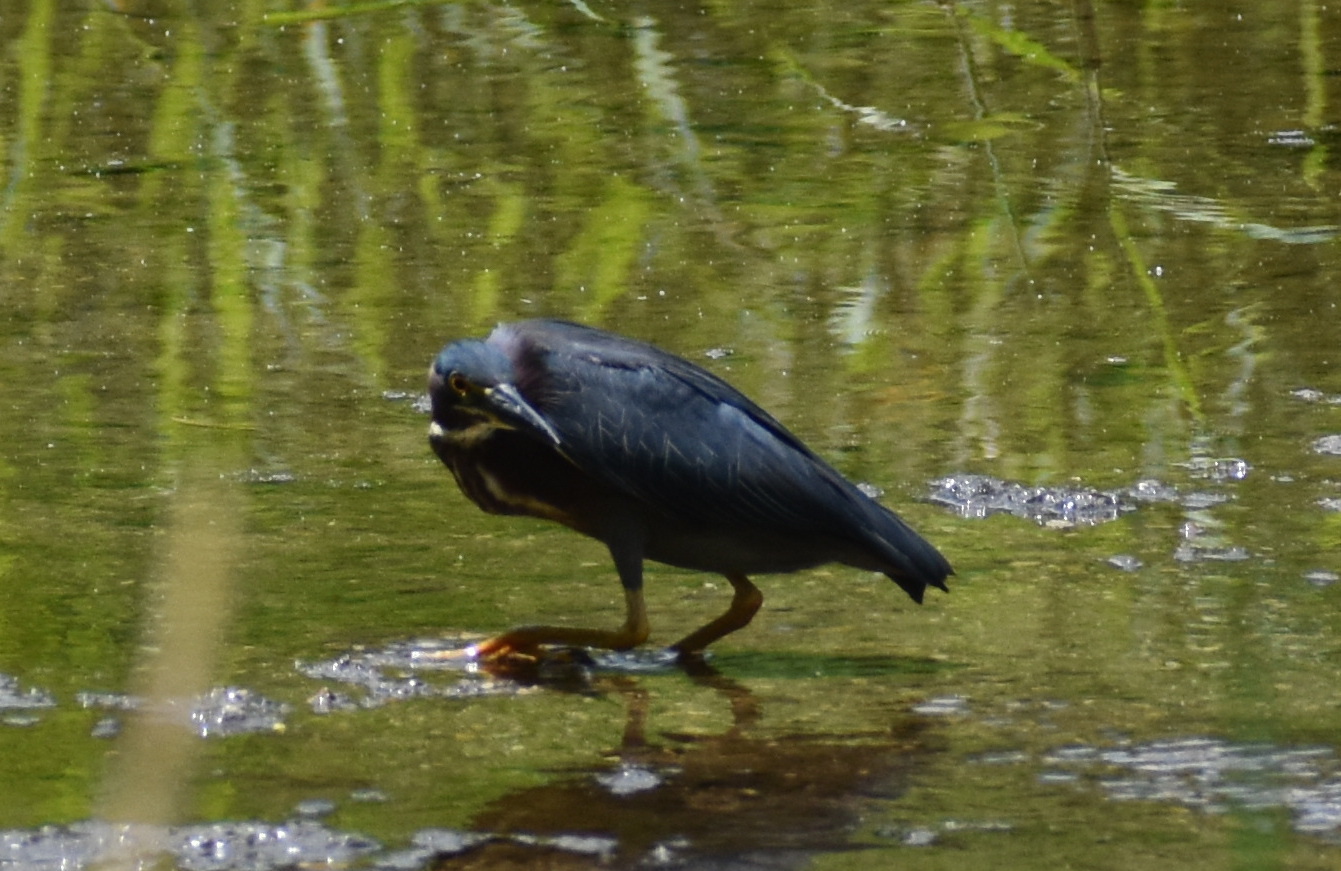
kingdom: Animalia
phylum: Chordata
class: Aves
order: Pelecaniformes
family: Ardeidae
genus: Butorides
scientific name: Butorides virescens
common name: Green heron
